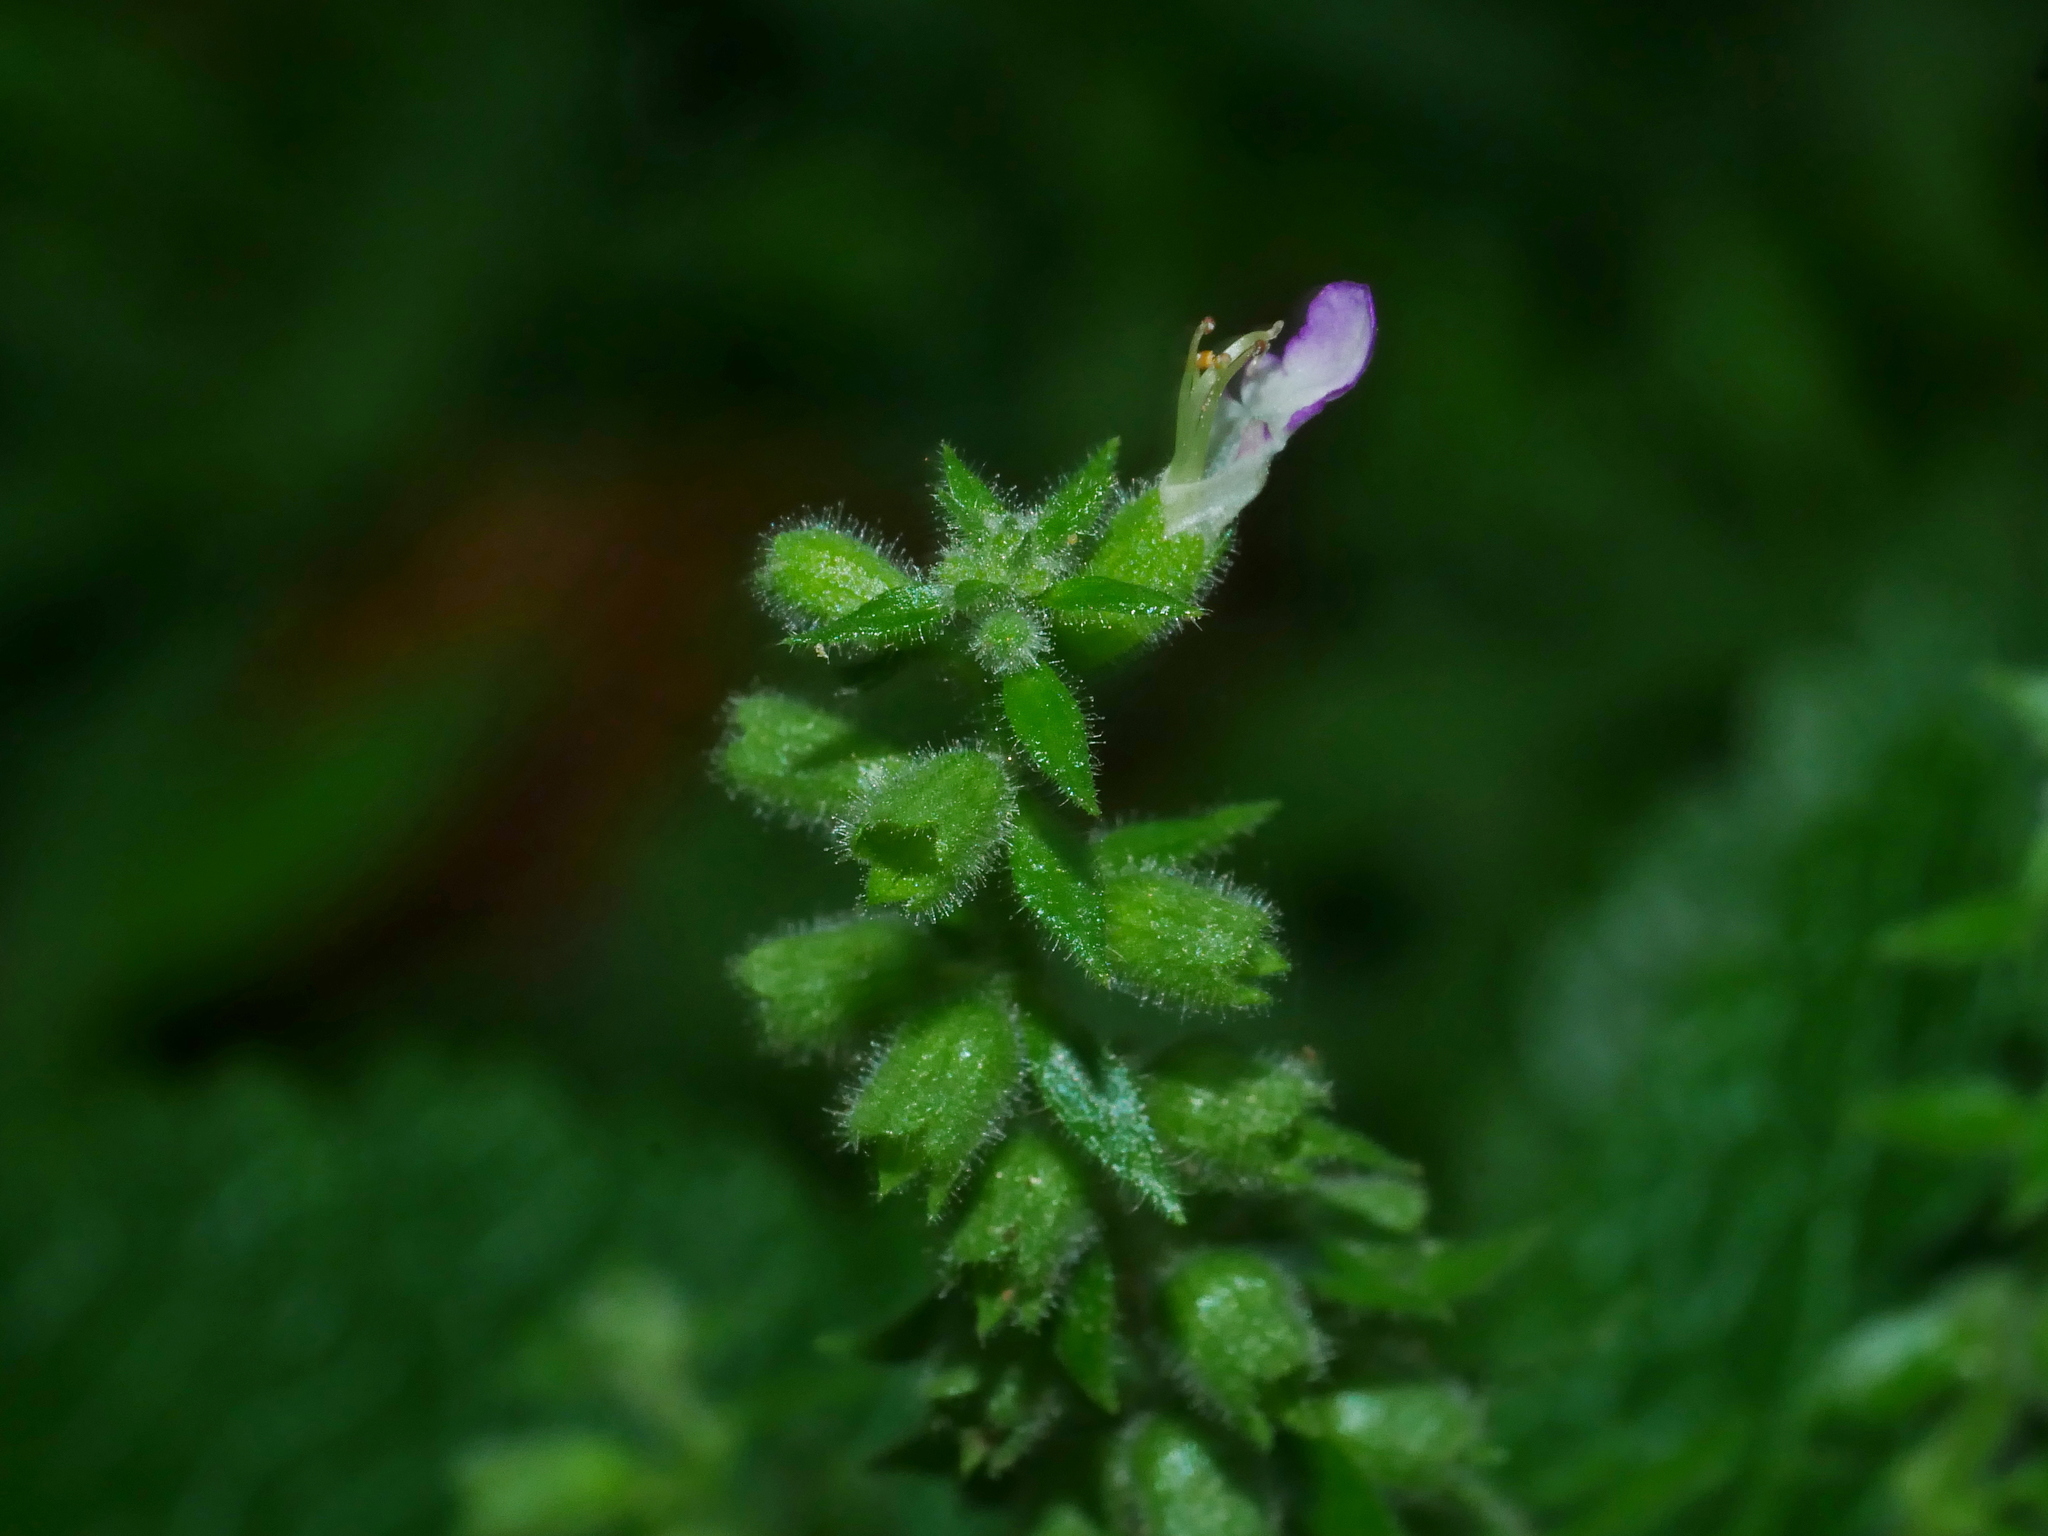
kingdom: Plantae
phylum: Tracheophyta
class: Magnoliopsida
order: Lamiales
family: Lamiaceae
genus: Teucrium
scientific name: Teucrium viscidum
